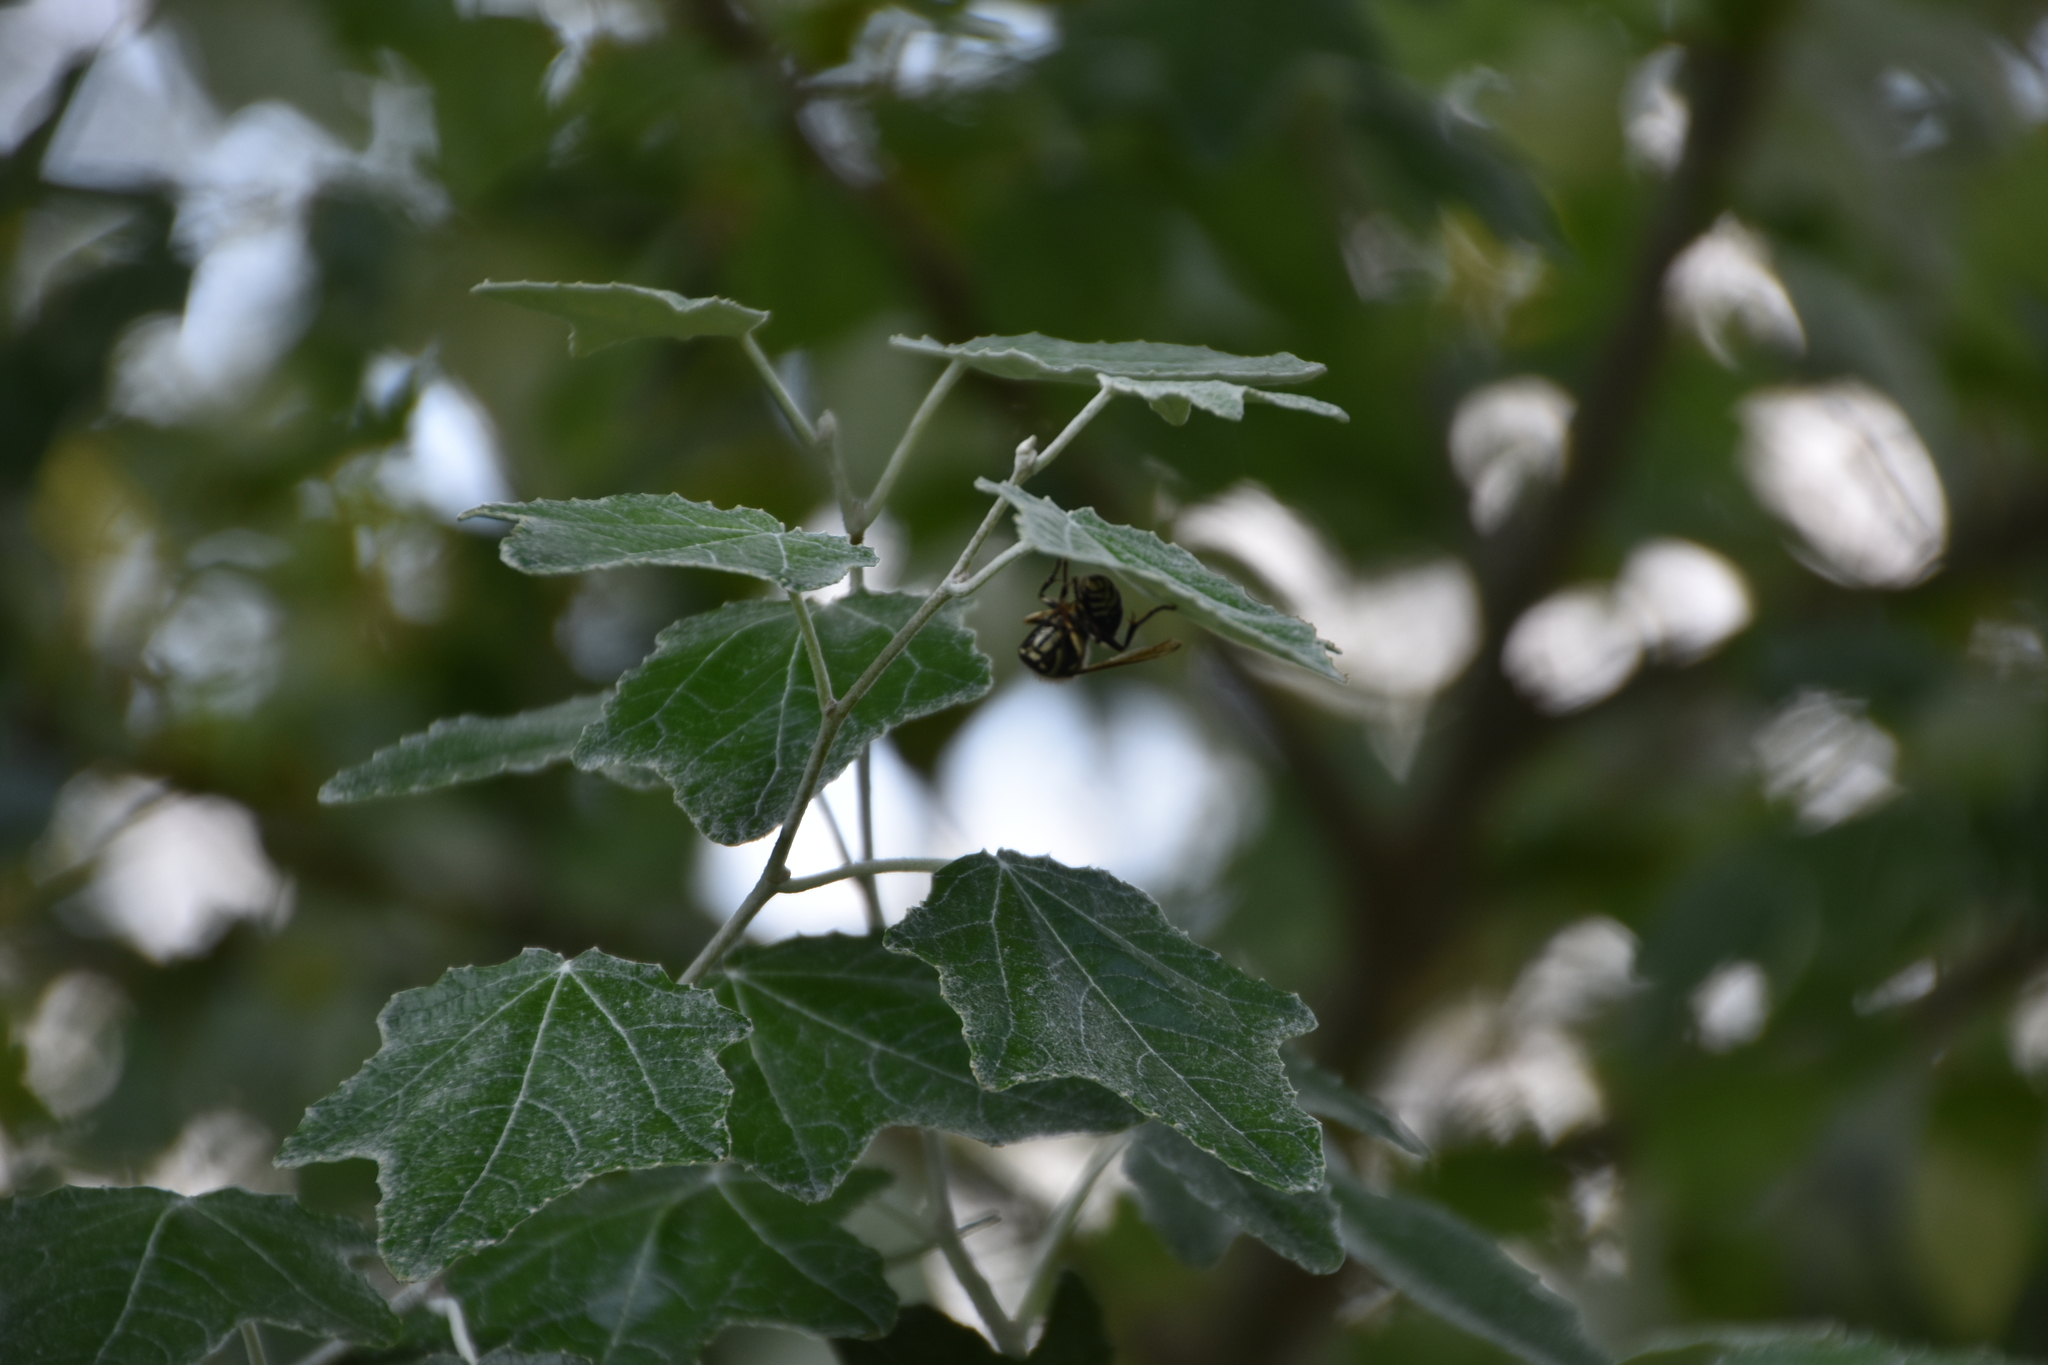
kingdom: Animalia
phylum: Arthropoda
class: Insecta
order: Hymenoptera
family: Vespidae
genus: Dolichovespula
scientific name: Dolichovespula maculata
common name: Bald-faced hornet
